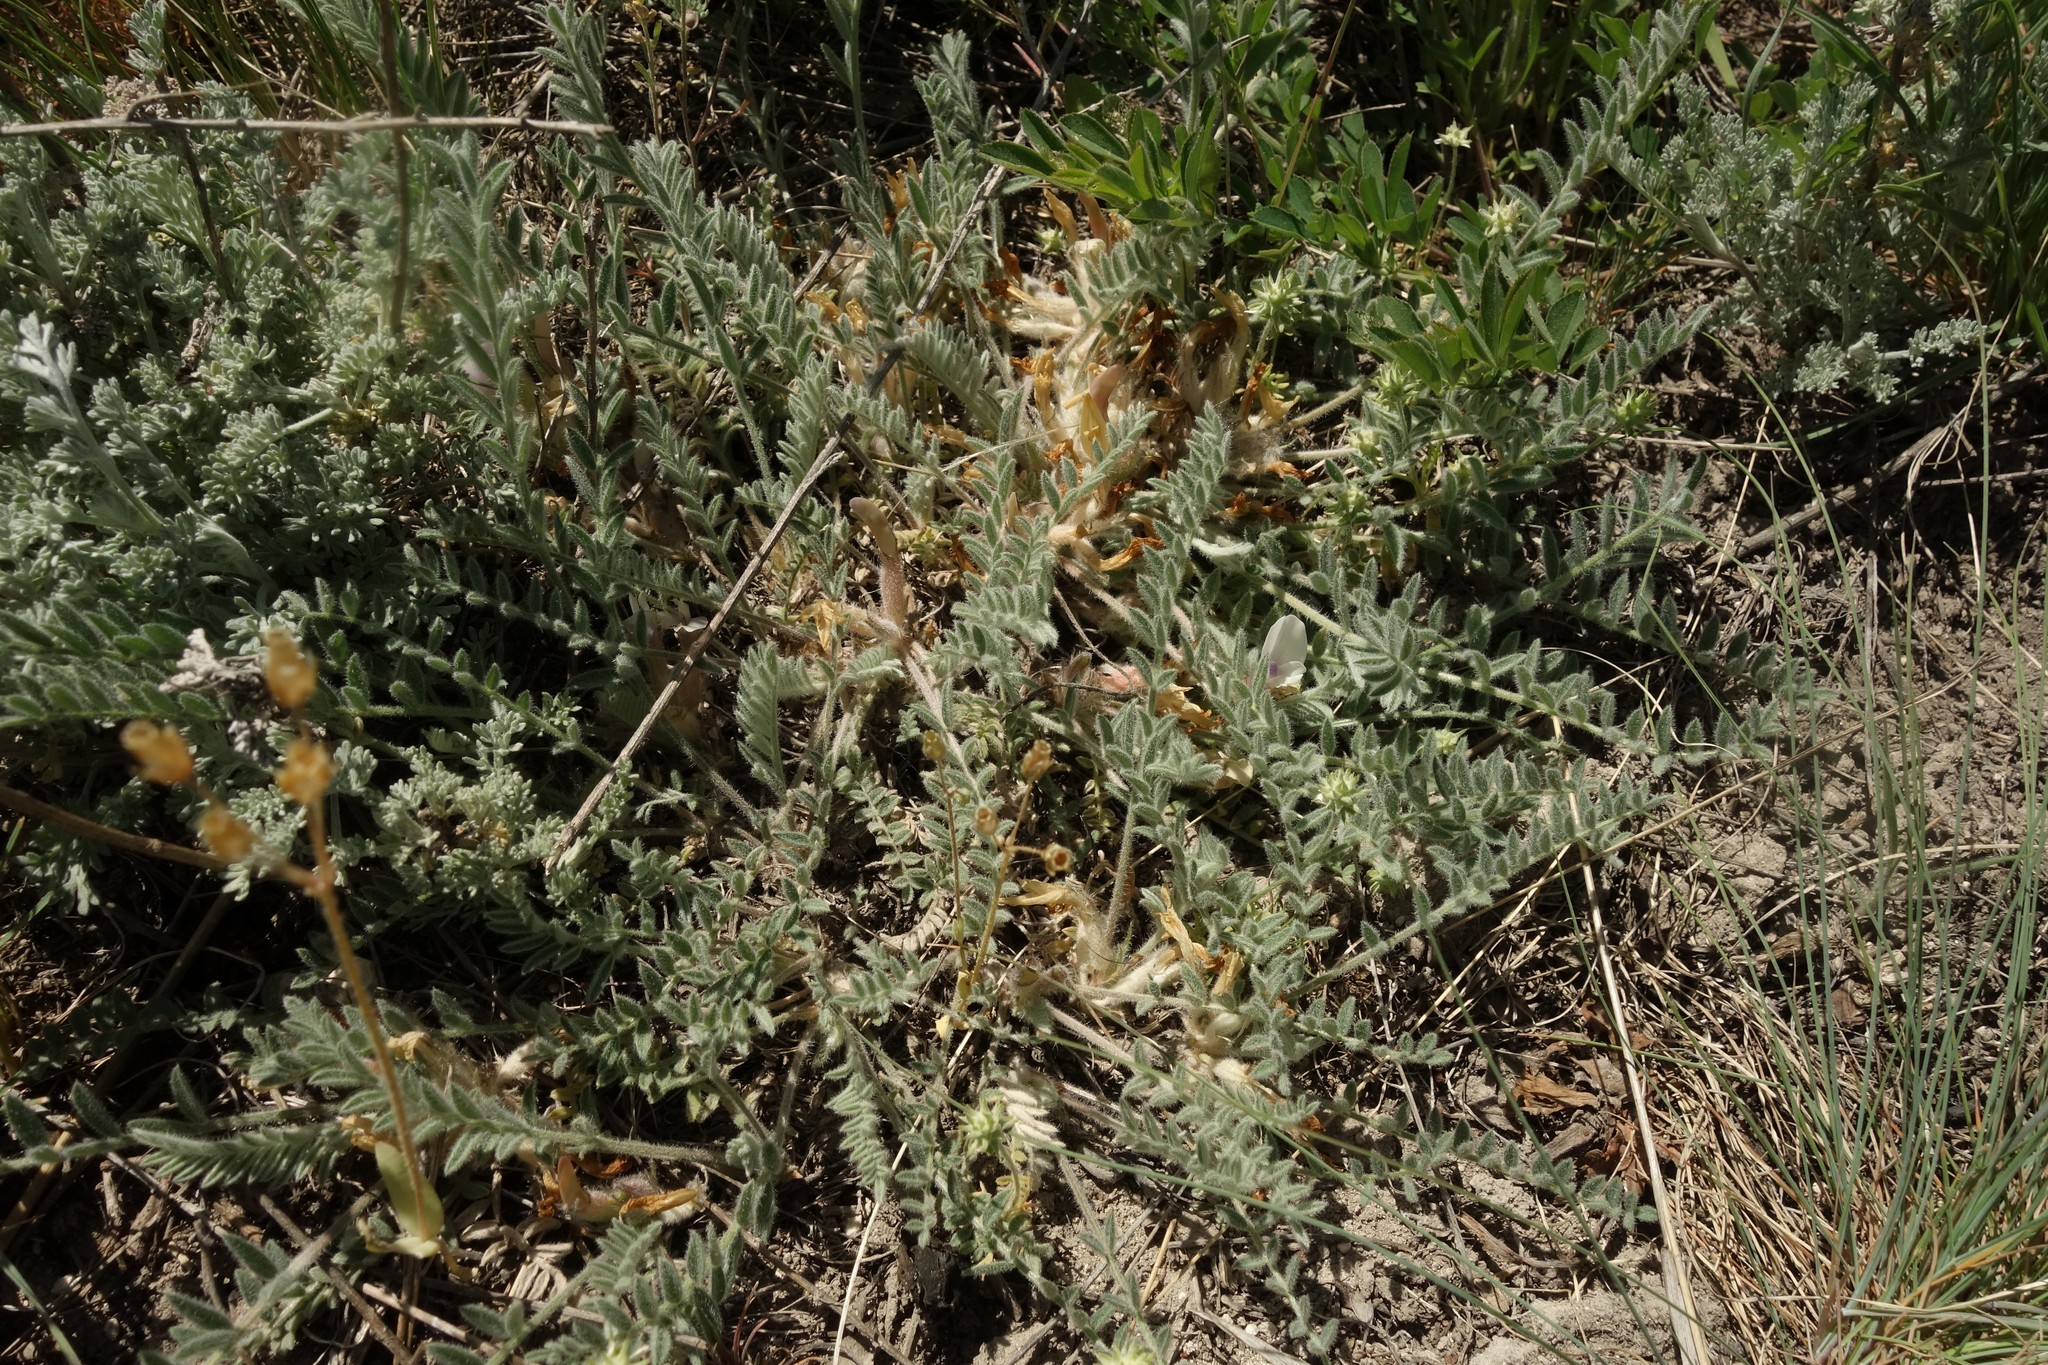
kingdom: Plantae
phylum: Tracheophyta
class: Magnoliopsida
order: Fabales
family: Fabaceae
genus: Astragalus
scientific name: Astragalus testiculatus
